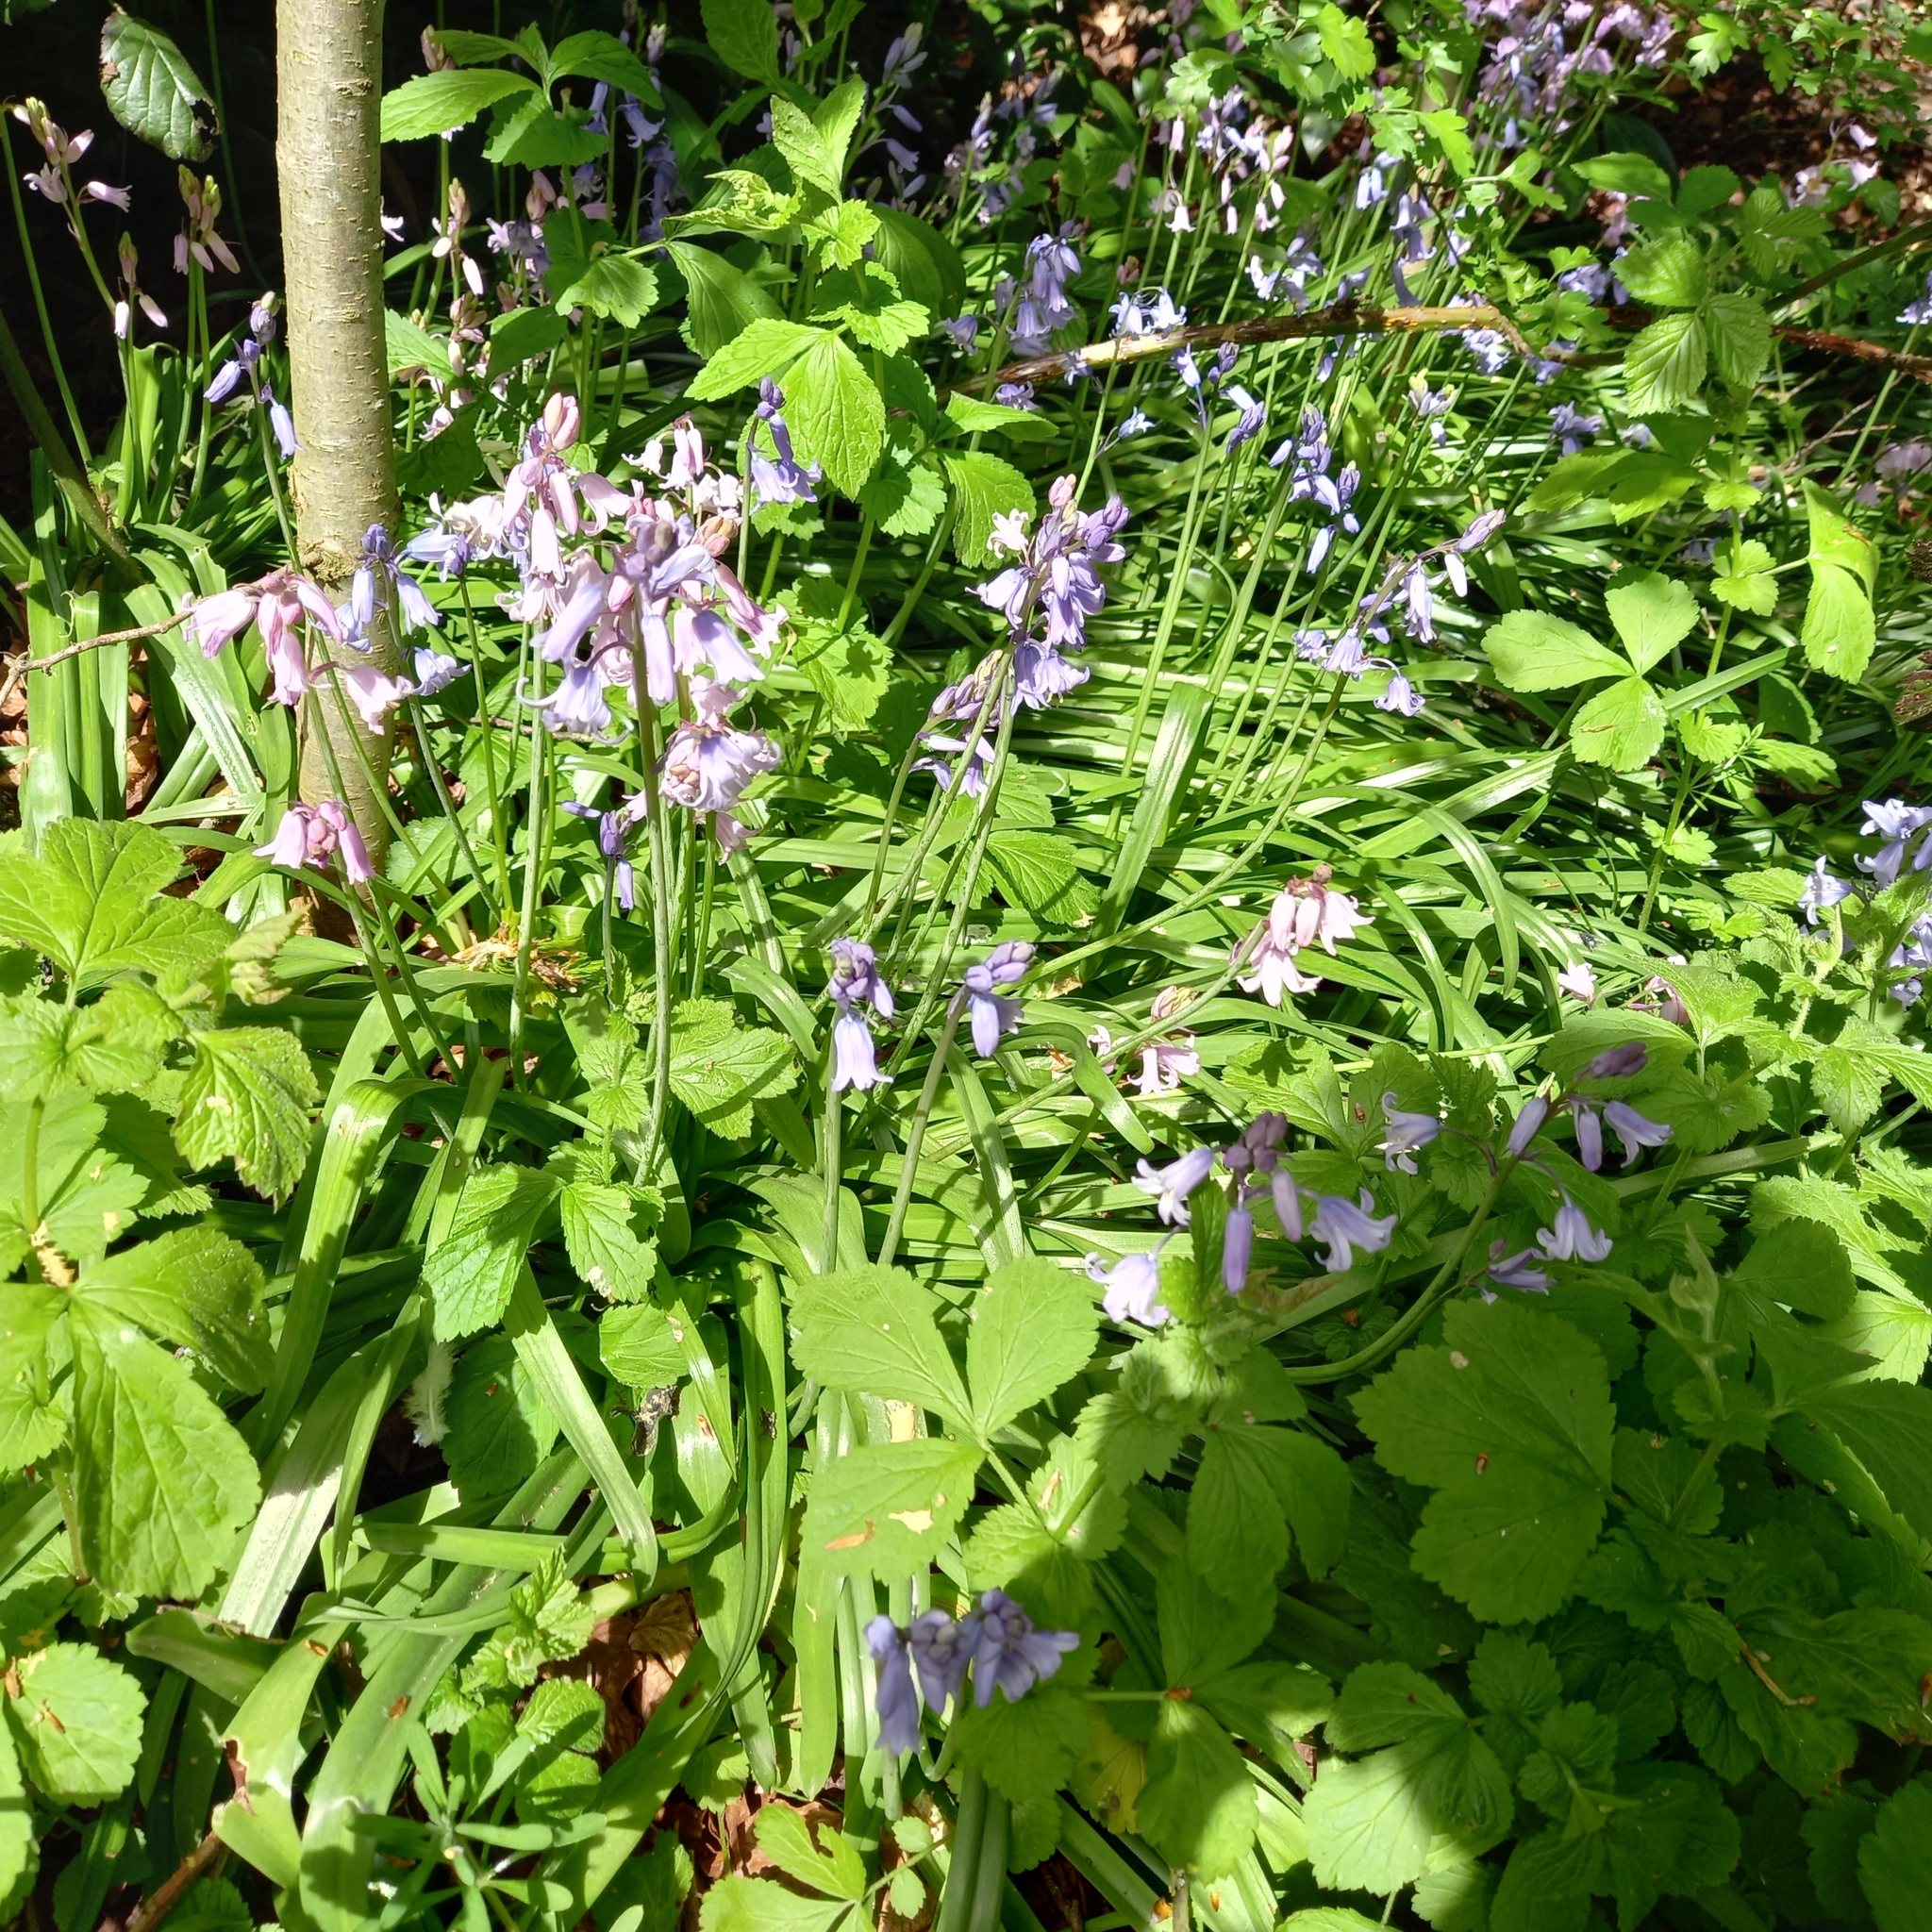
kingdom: Plantae
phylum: Tracheophyta
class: Liliopsida
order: Asparagales
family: Asparagaceae
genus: Hyacinthoides
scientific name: Hyacinthoides hispanica
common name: Spanish bluebell
